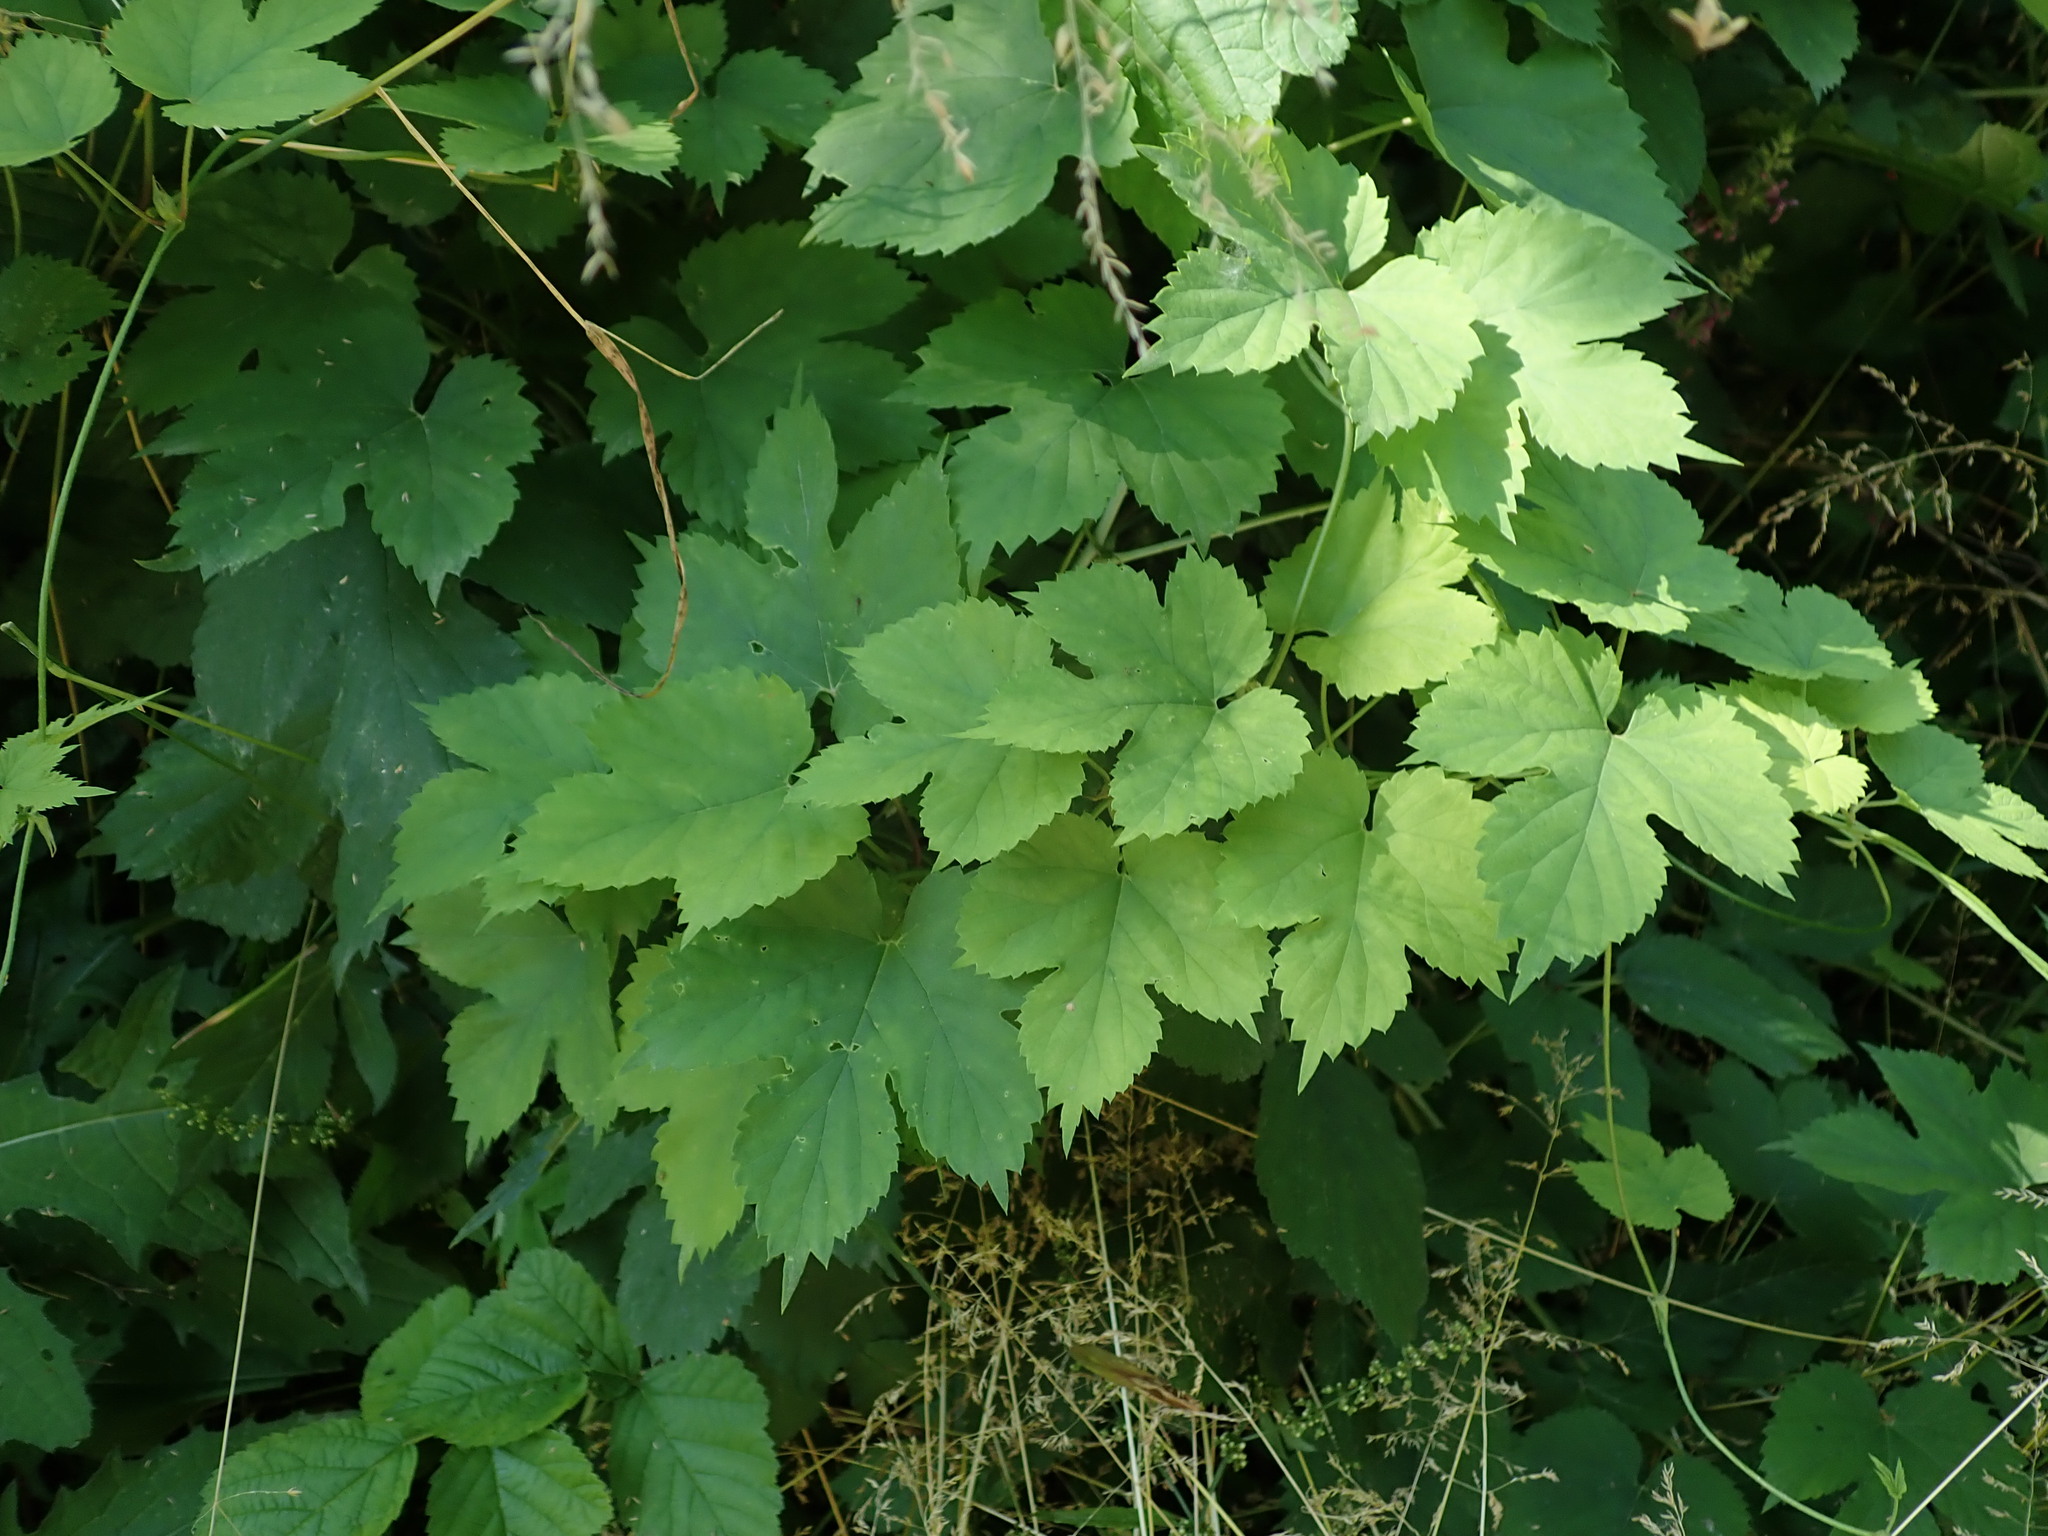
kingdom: Plantae
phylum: Tracheophyta
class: Magnoliopsida
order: Rosales
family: Cannabaceae
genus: Humulus
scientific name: Humulus lupulus
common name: Hop
